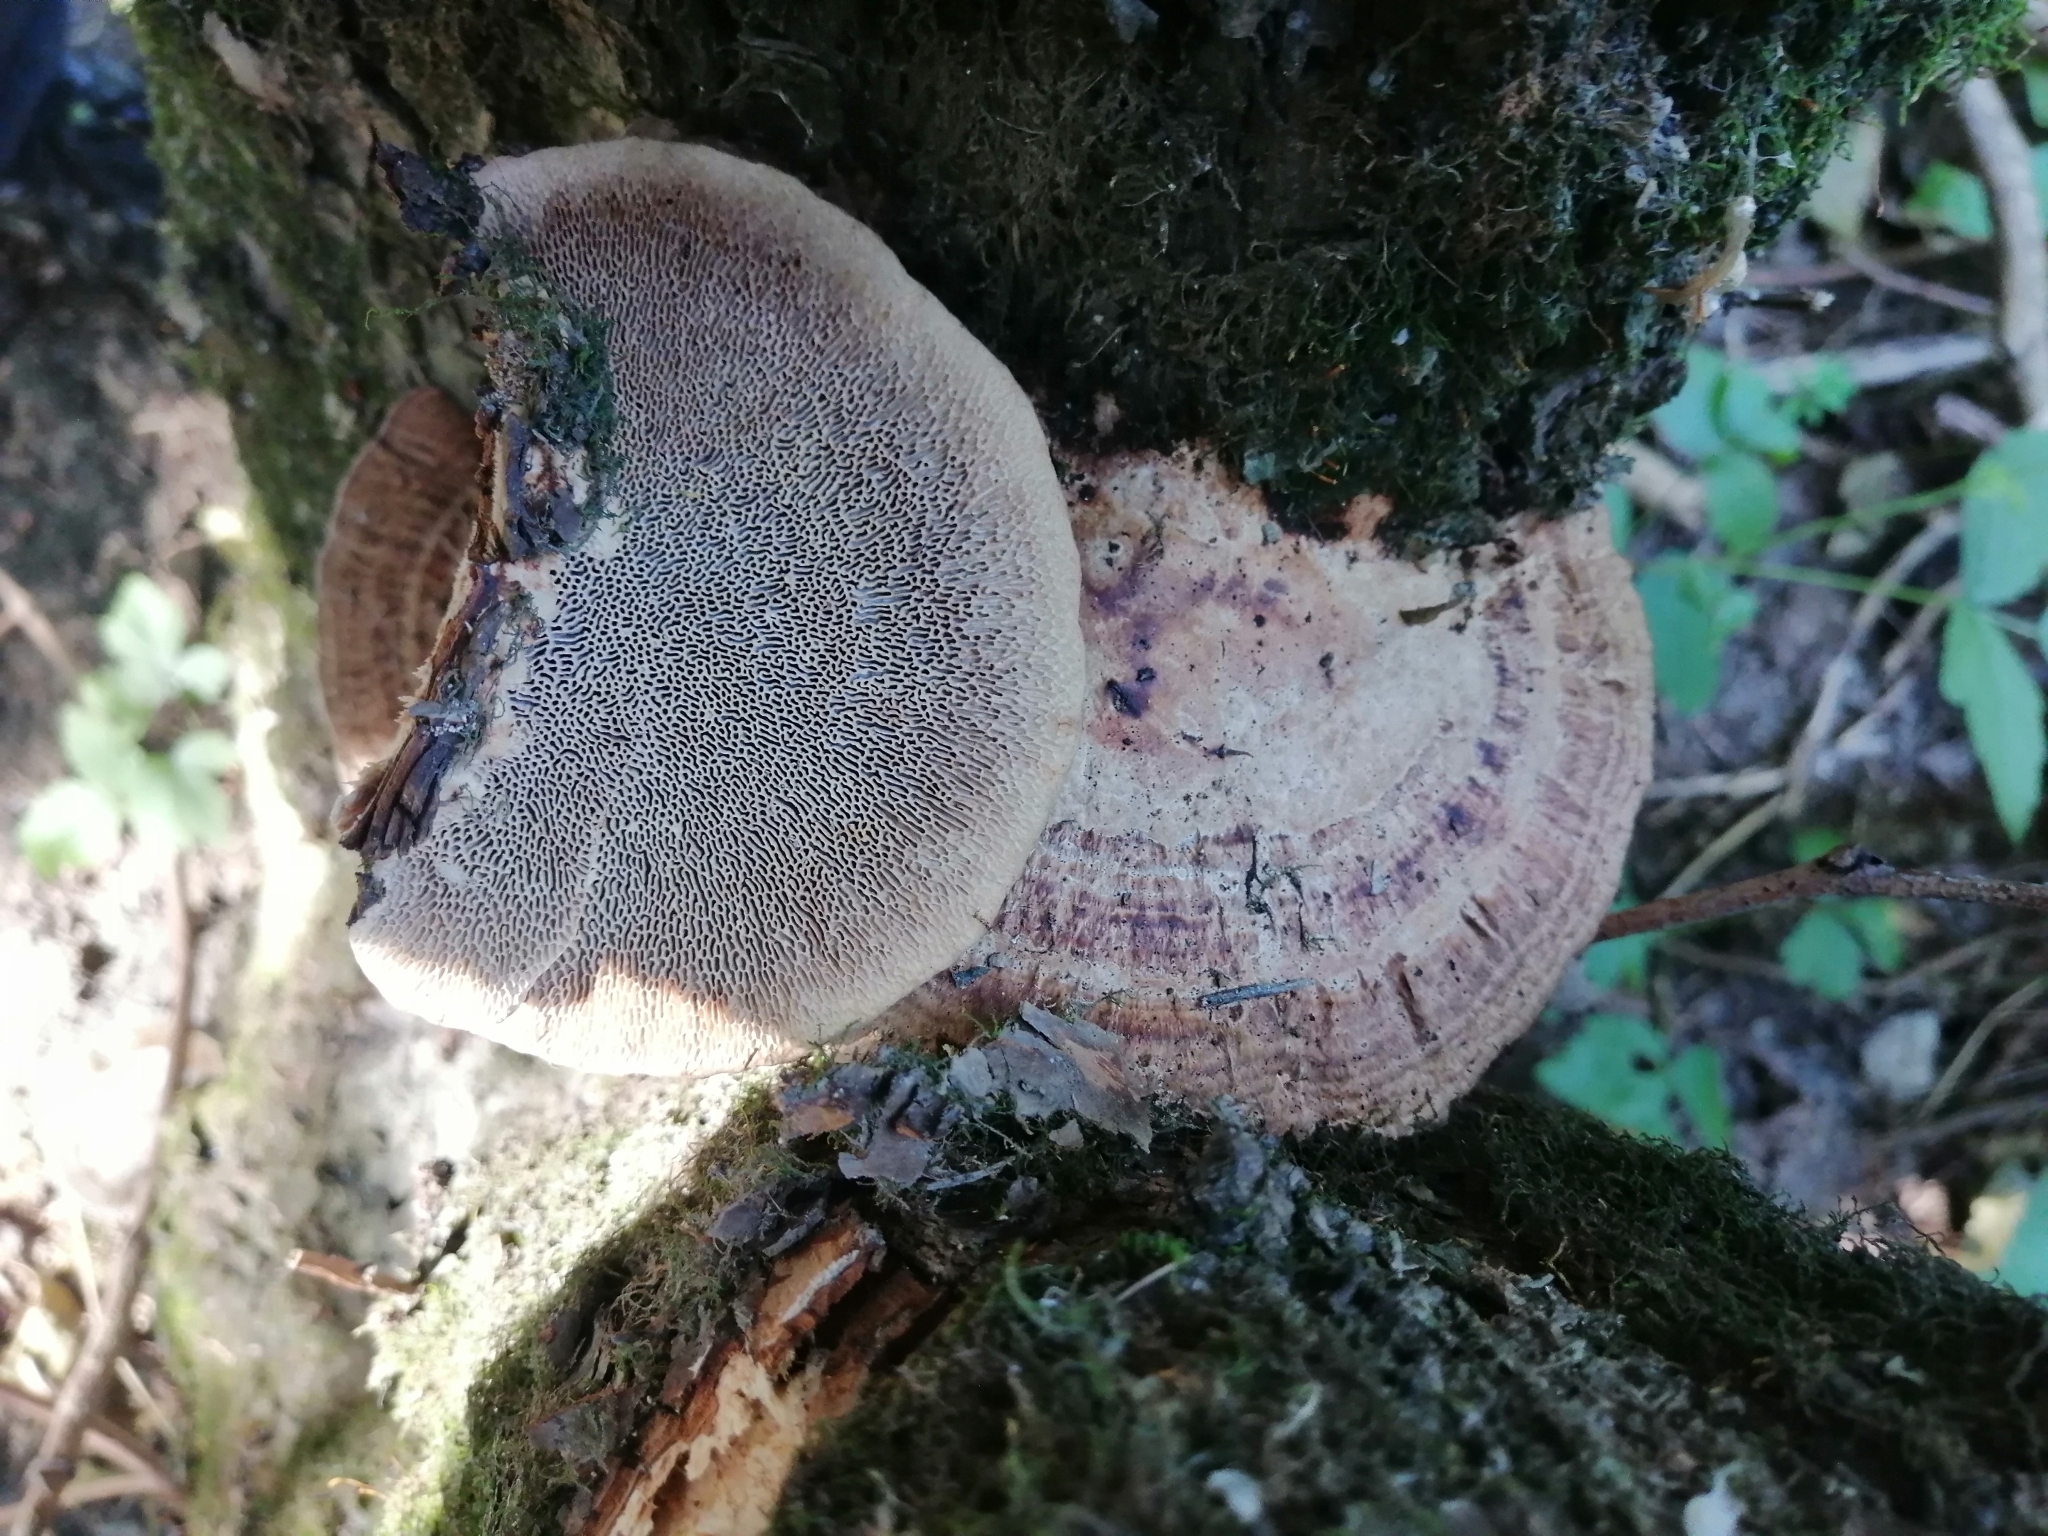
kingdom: Fungi
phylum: Basidiomycota
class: Agaricomycetes
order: Polyporales
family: Polyporaceae
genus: Daedaleopsis
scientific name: Daedaleopsis confragosa
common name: Blushing bracket
